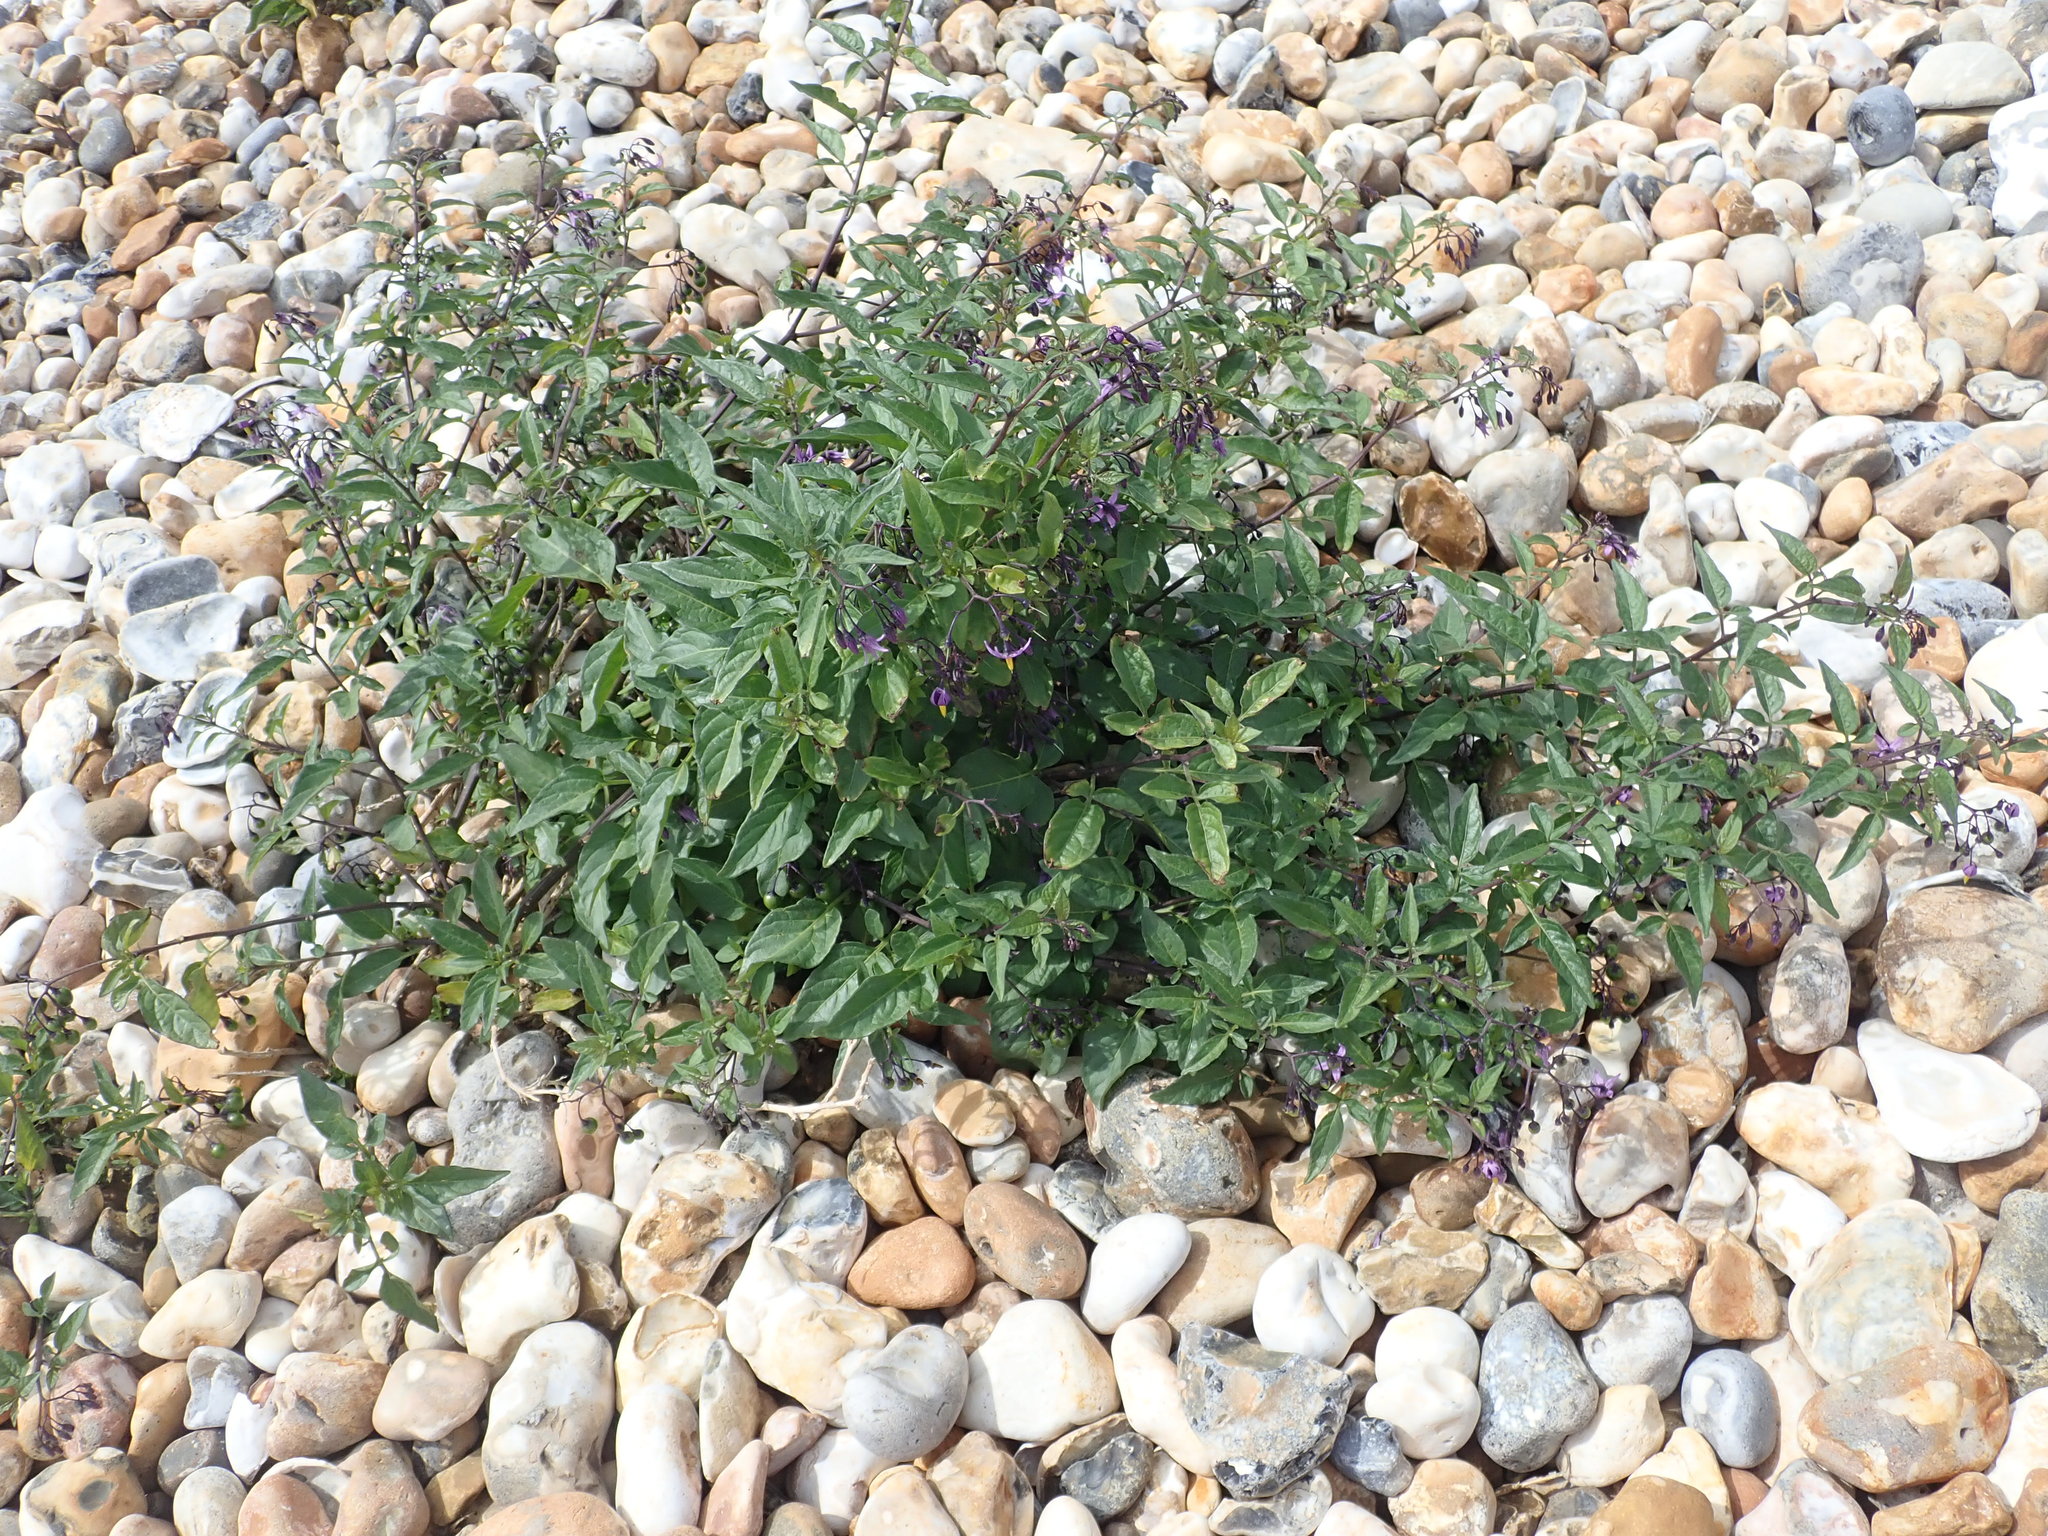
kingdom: Plantae
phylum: Tracheophyta
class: Magnoliopsida
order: Solanales
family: Solanaceae
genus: Solanum
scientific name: Solanum dulcamara
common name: Climbing nightshade
